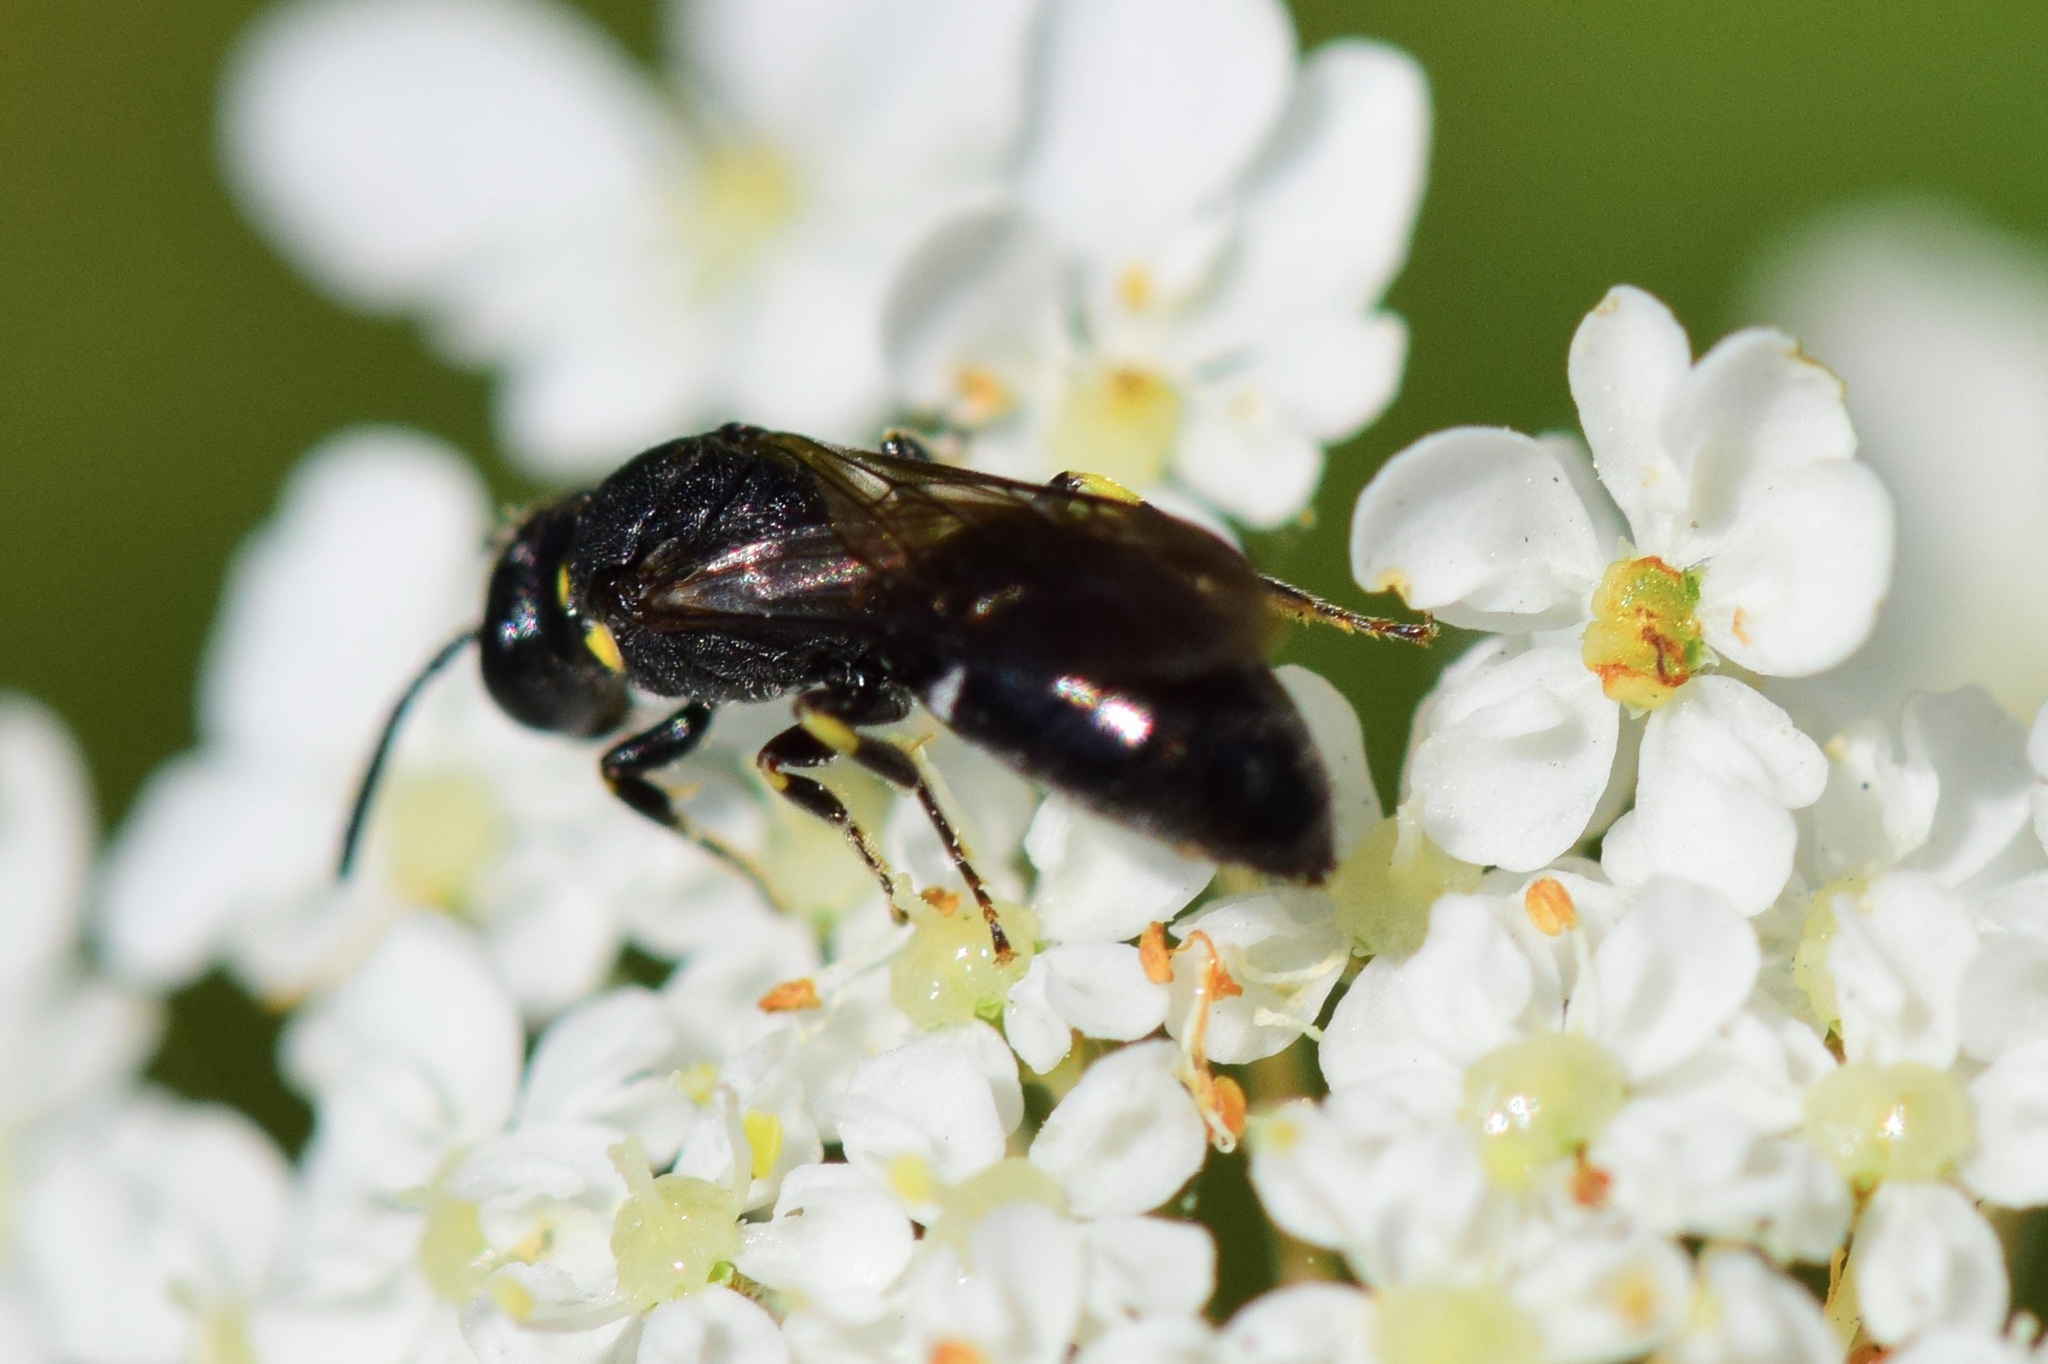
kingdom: Animalia
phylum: Arthropoda
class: Insecta
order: Hymenoptera
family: Colletidae
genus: Hylaeus
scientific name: Hylaeus modestus
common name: Yellow-faced bee
